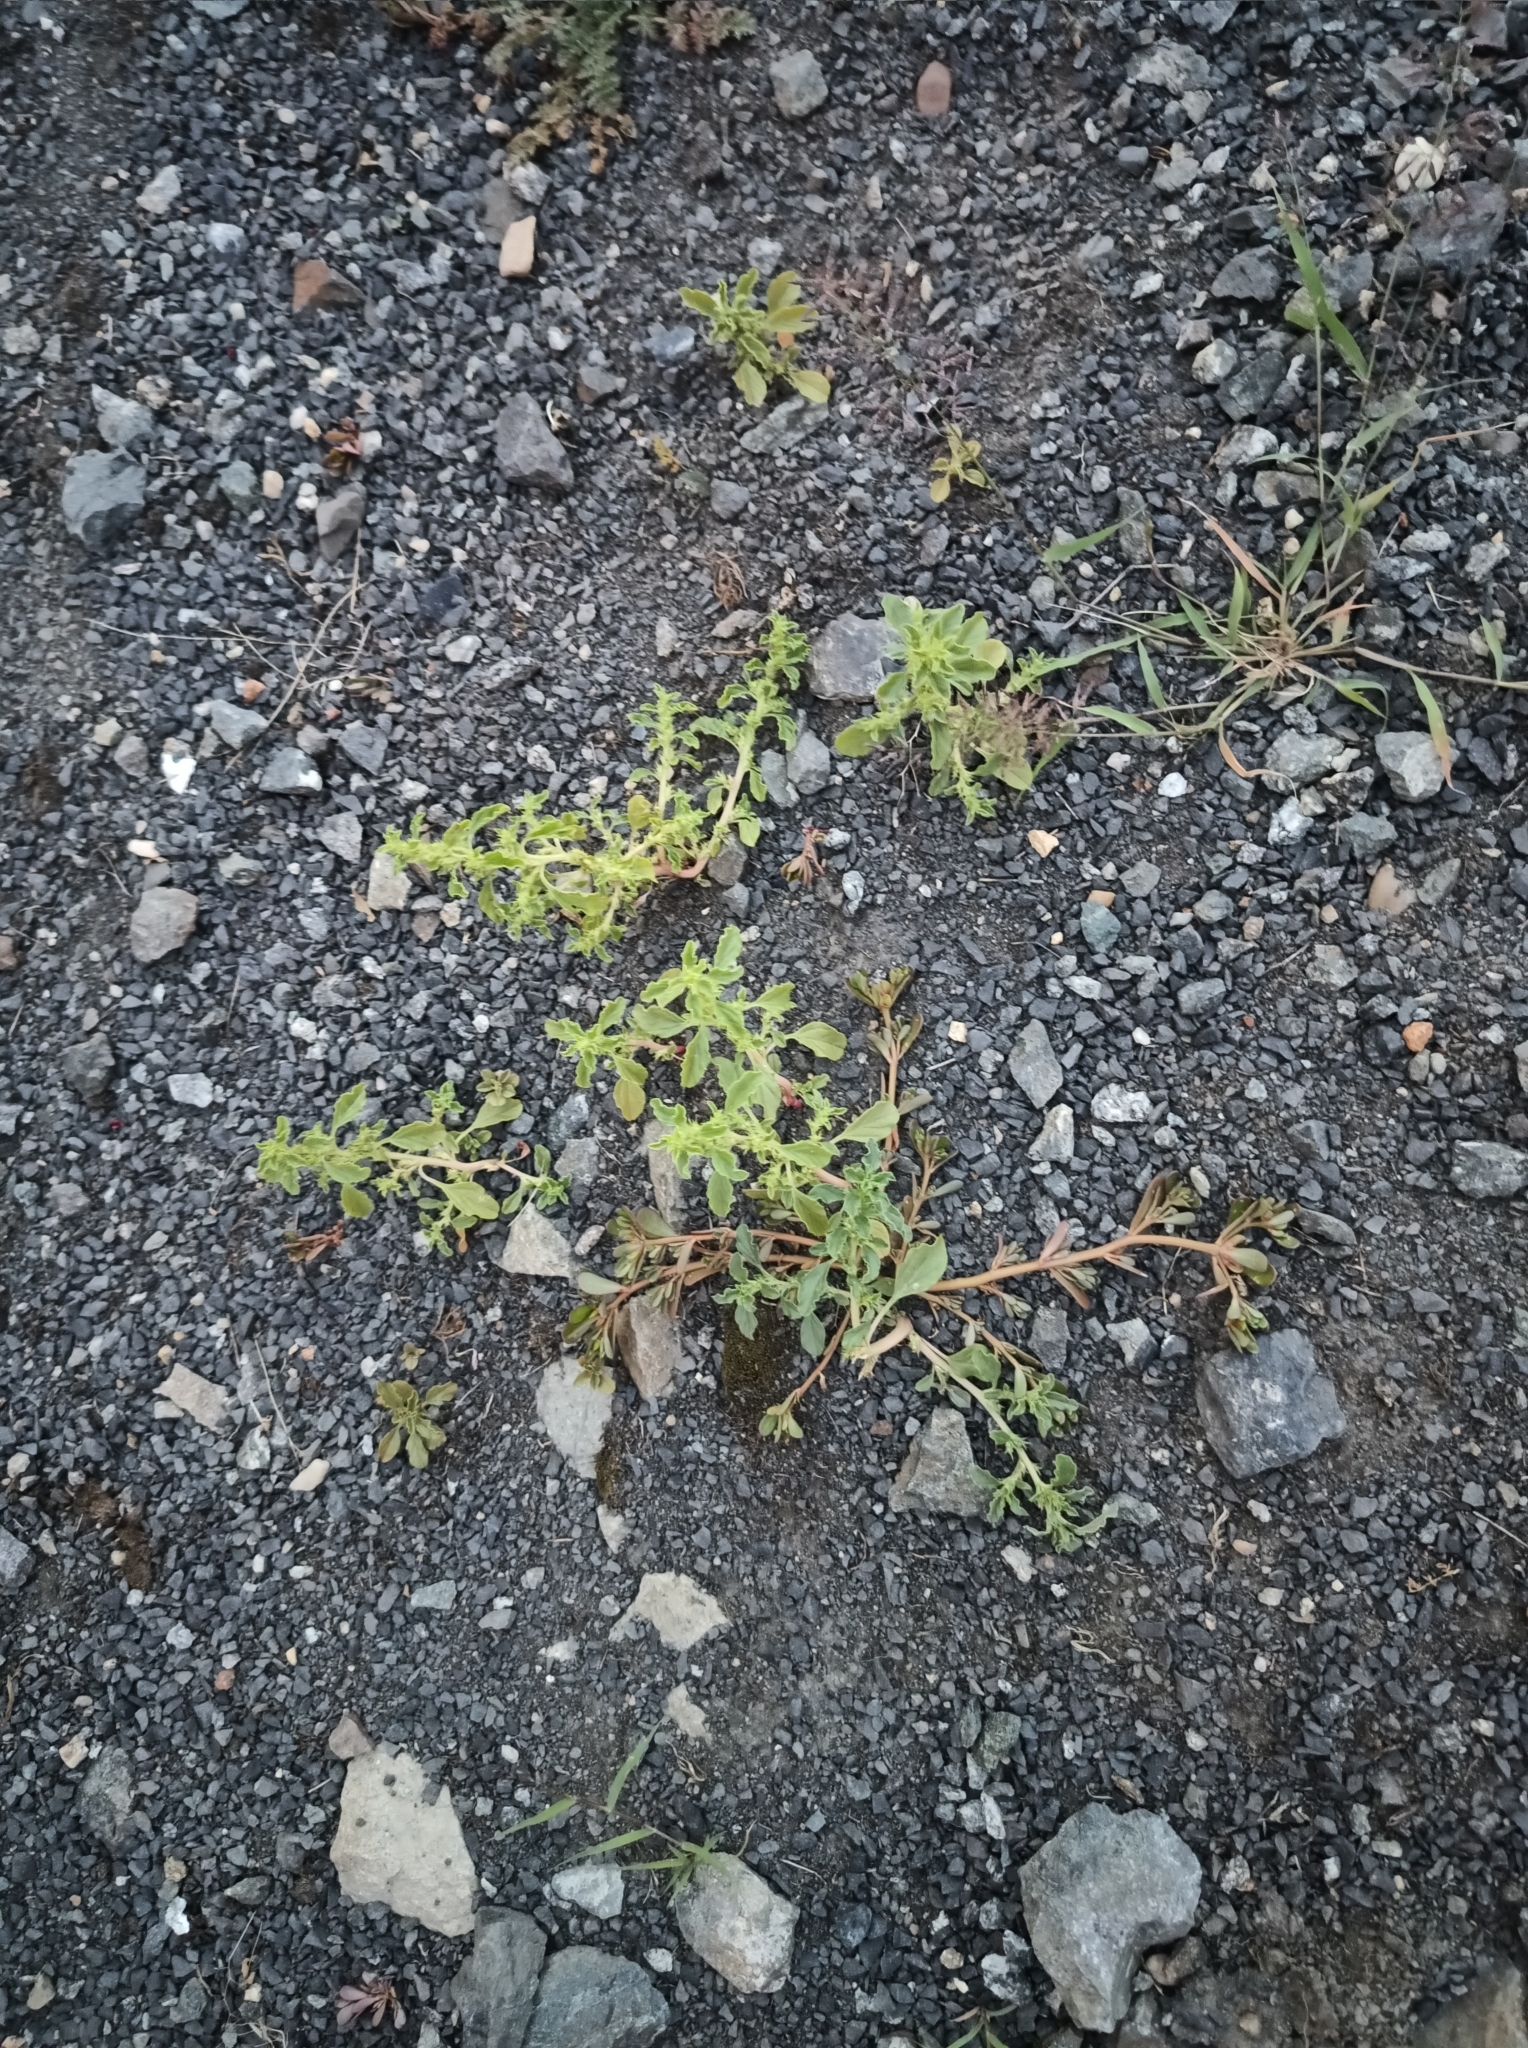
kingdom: Plantae
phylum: Tracheophyta
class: Magnoliopsida
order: Caryophyllales
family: Amaranthaceae
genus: Amaranthus
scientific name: Amaranthus albus
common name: White pigweed
